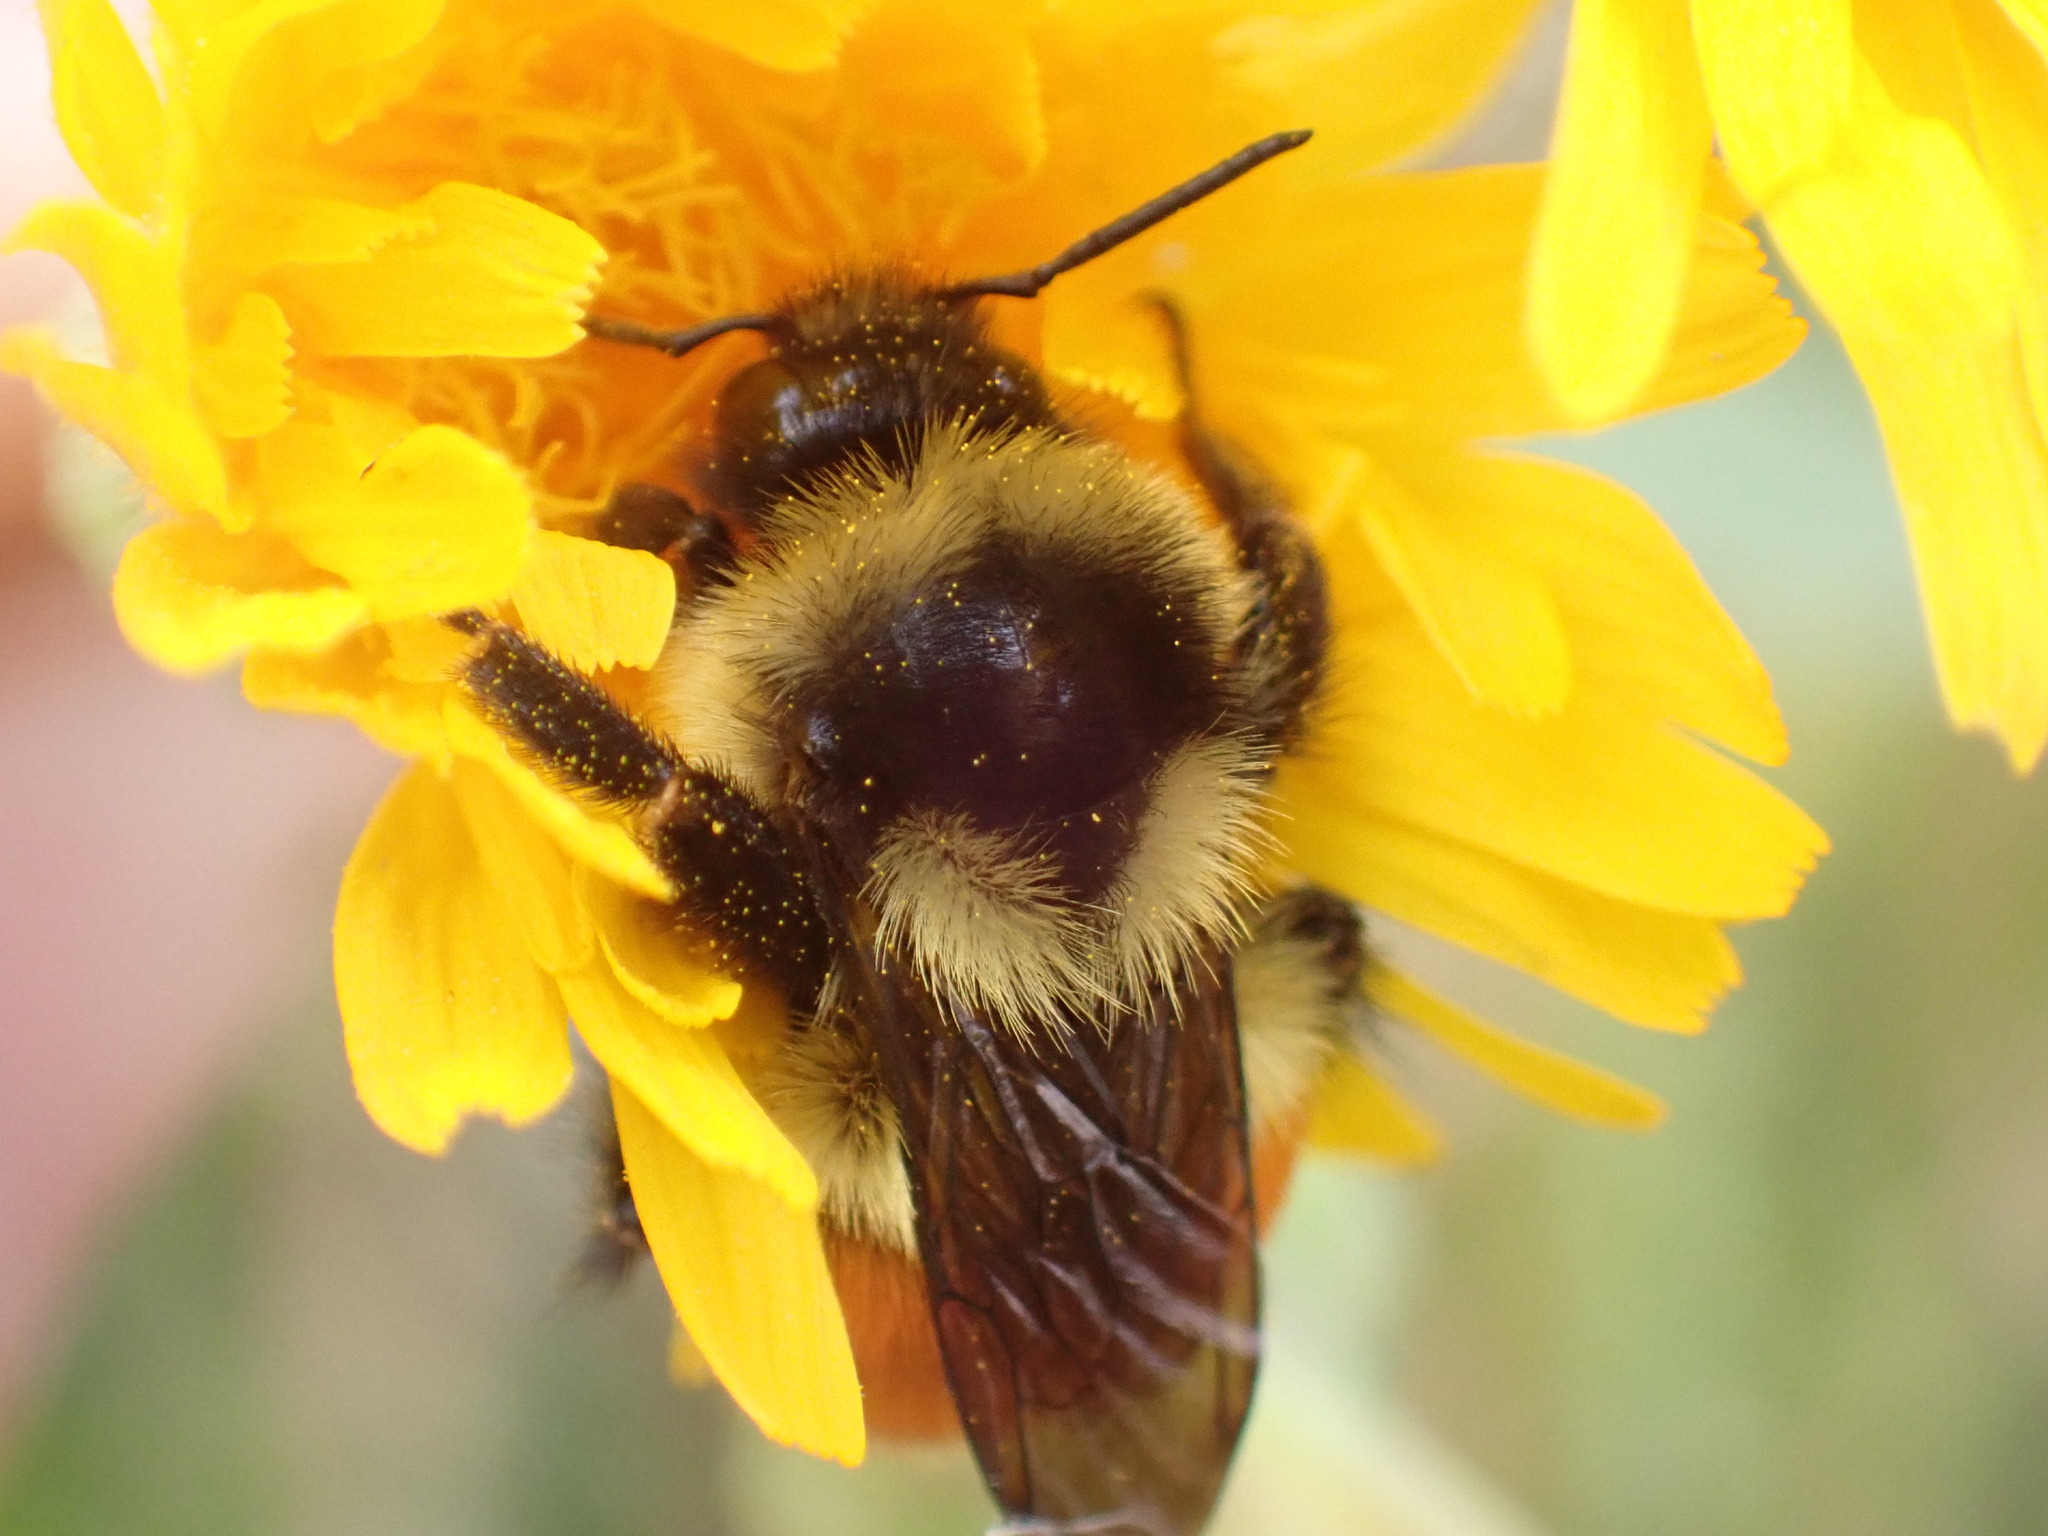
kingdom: Animalia
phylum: Arthropoda
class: Insecta
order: Hymenoptera
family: Apidae
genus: Bombus
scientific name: Bombus ternarius
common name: Tri-colored bumble bee
